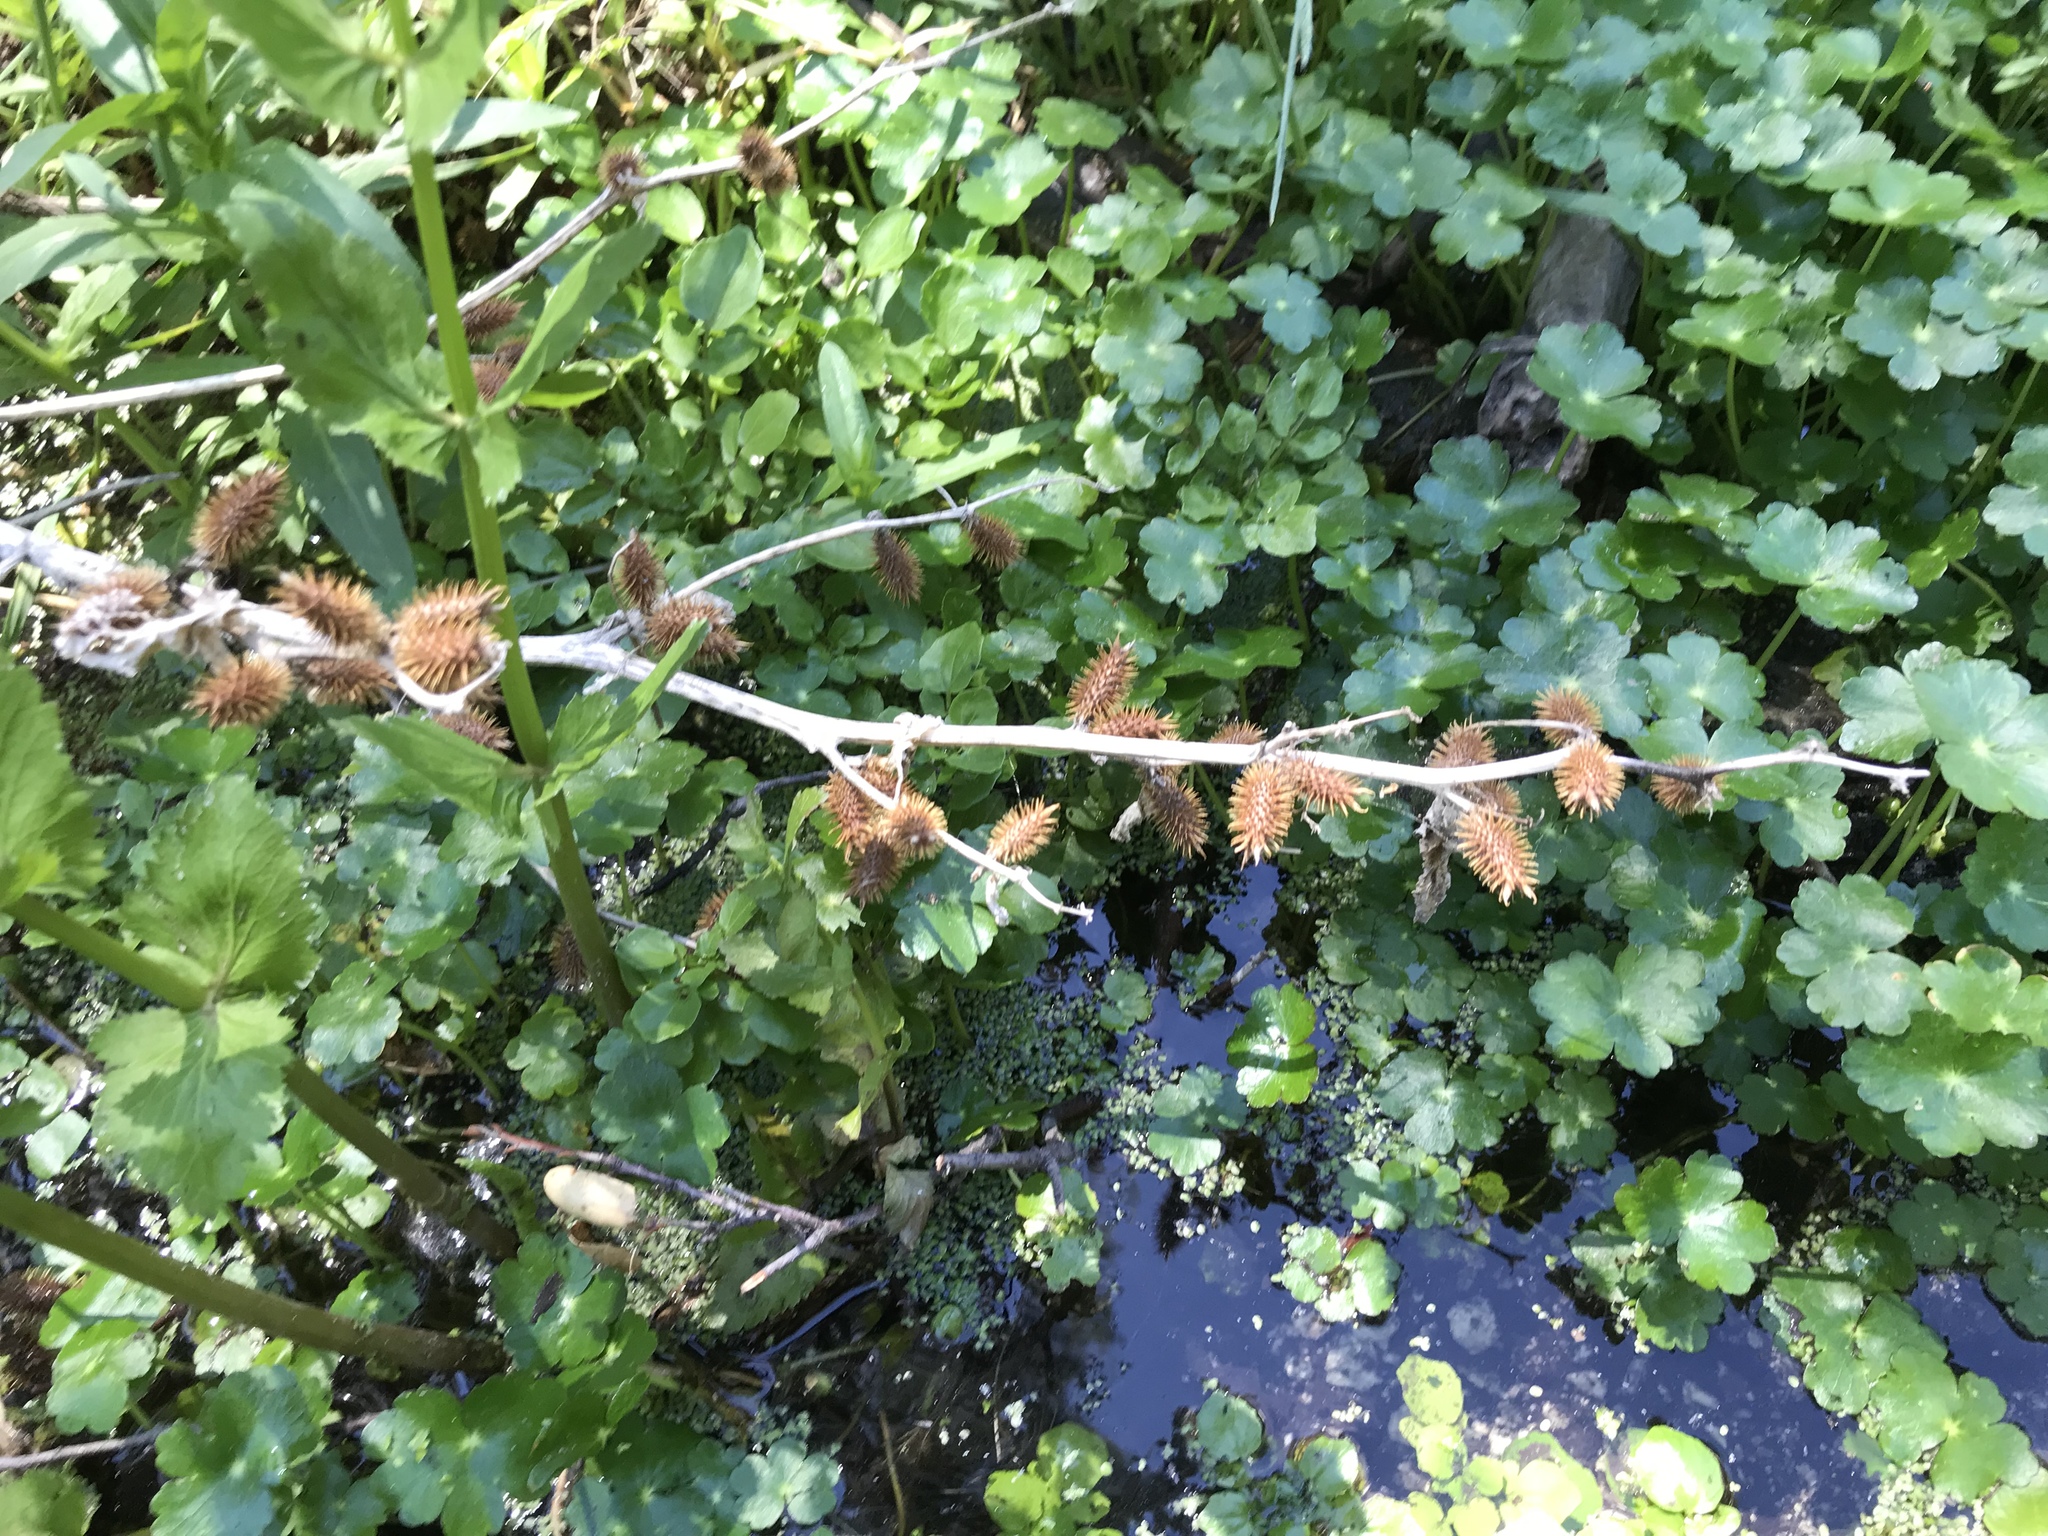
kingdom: Plantae
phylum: Tracheophyta
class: Magnoliopsida
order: Asterales
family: Asteraceae
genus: Xanthium
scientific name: Xanthium strumarium
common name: Rough cocklebur
